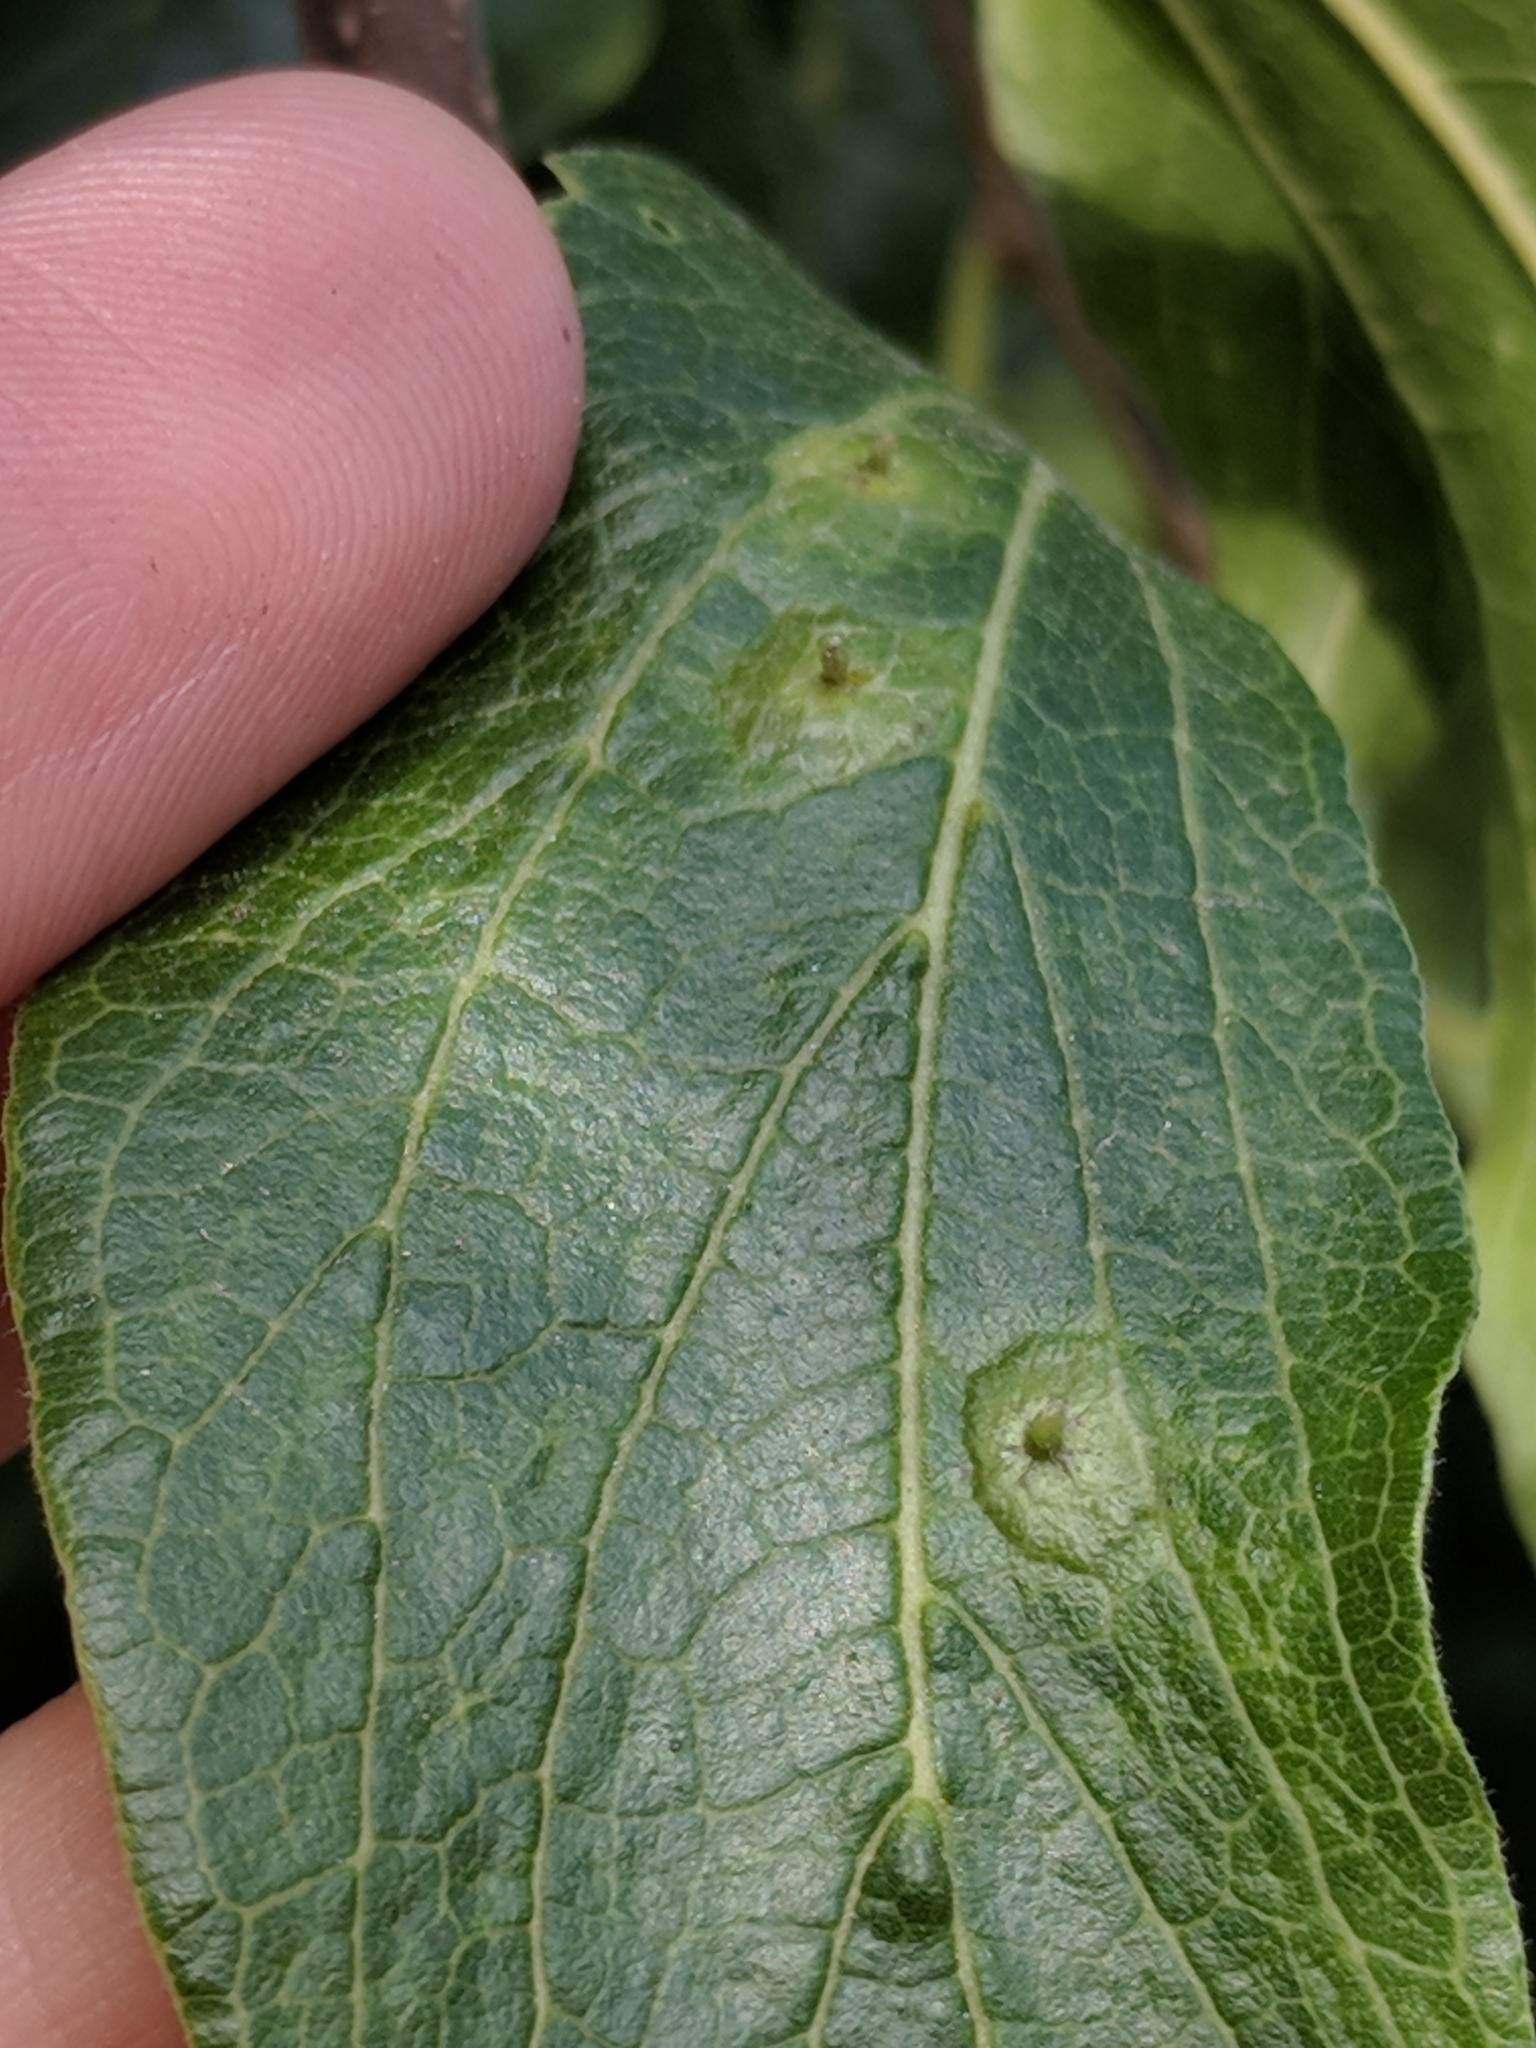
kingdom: Animalia
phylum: Arthropoda
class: Insecta
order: Hemiptera
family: Aphalaridae
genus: Pachypsylla
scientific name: Pachypsylla celtidisasterisca
